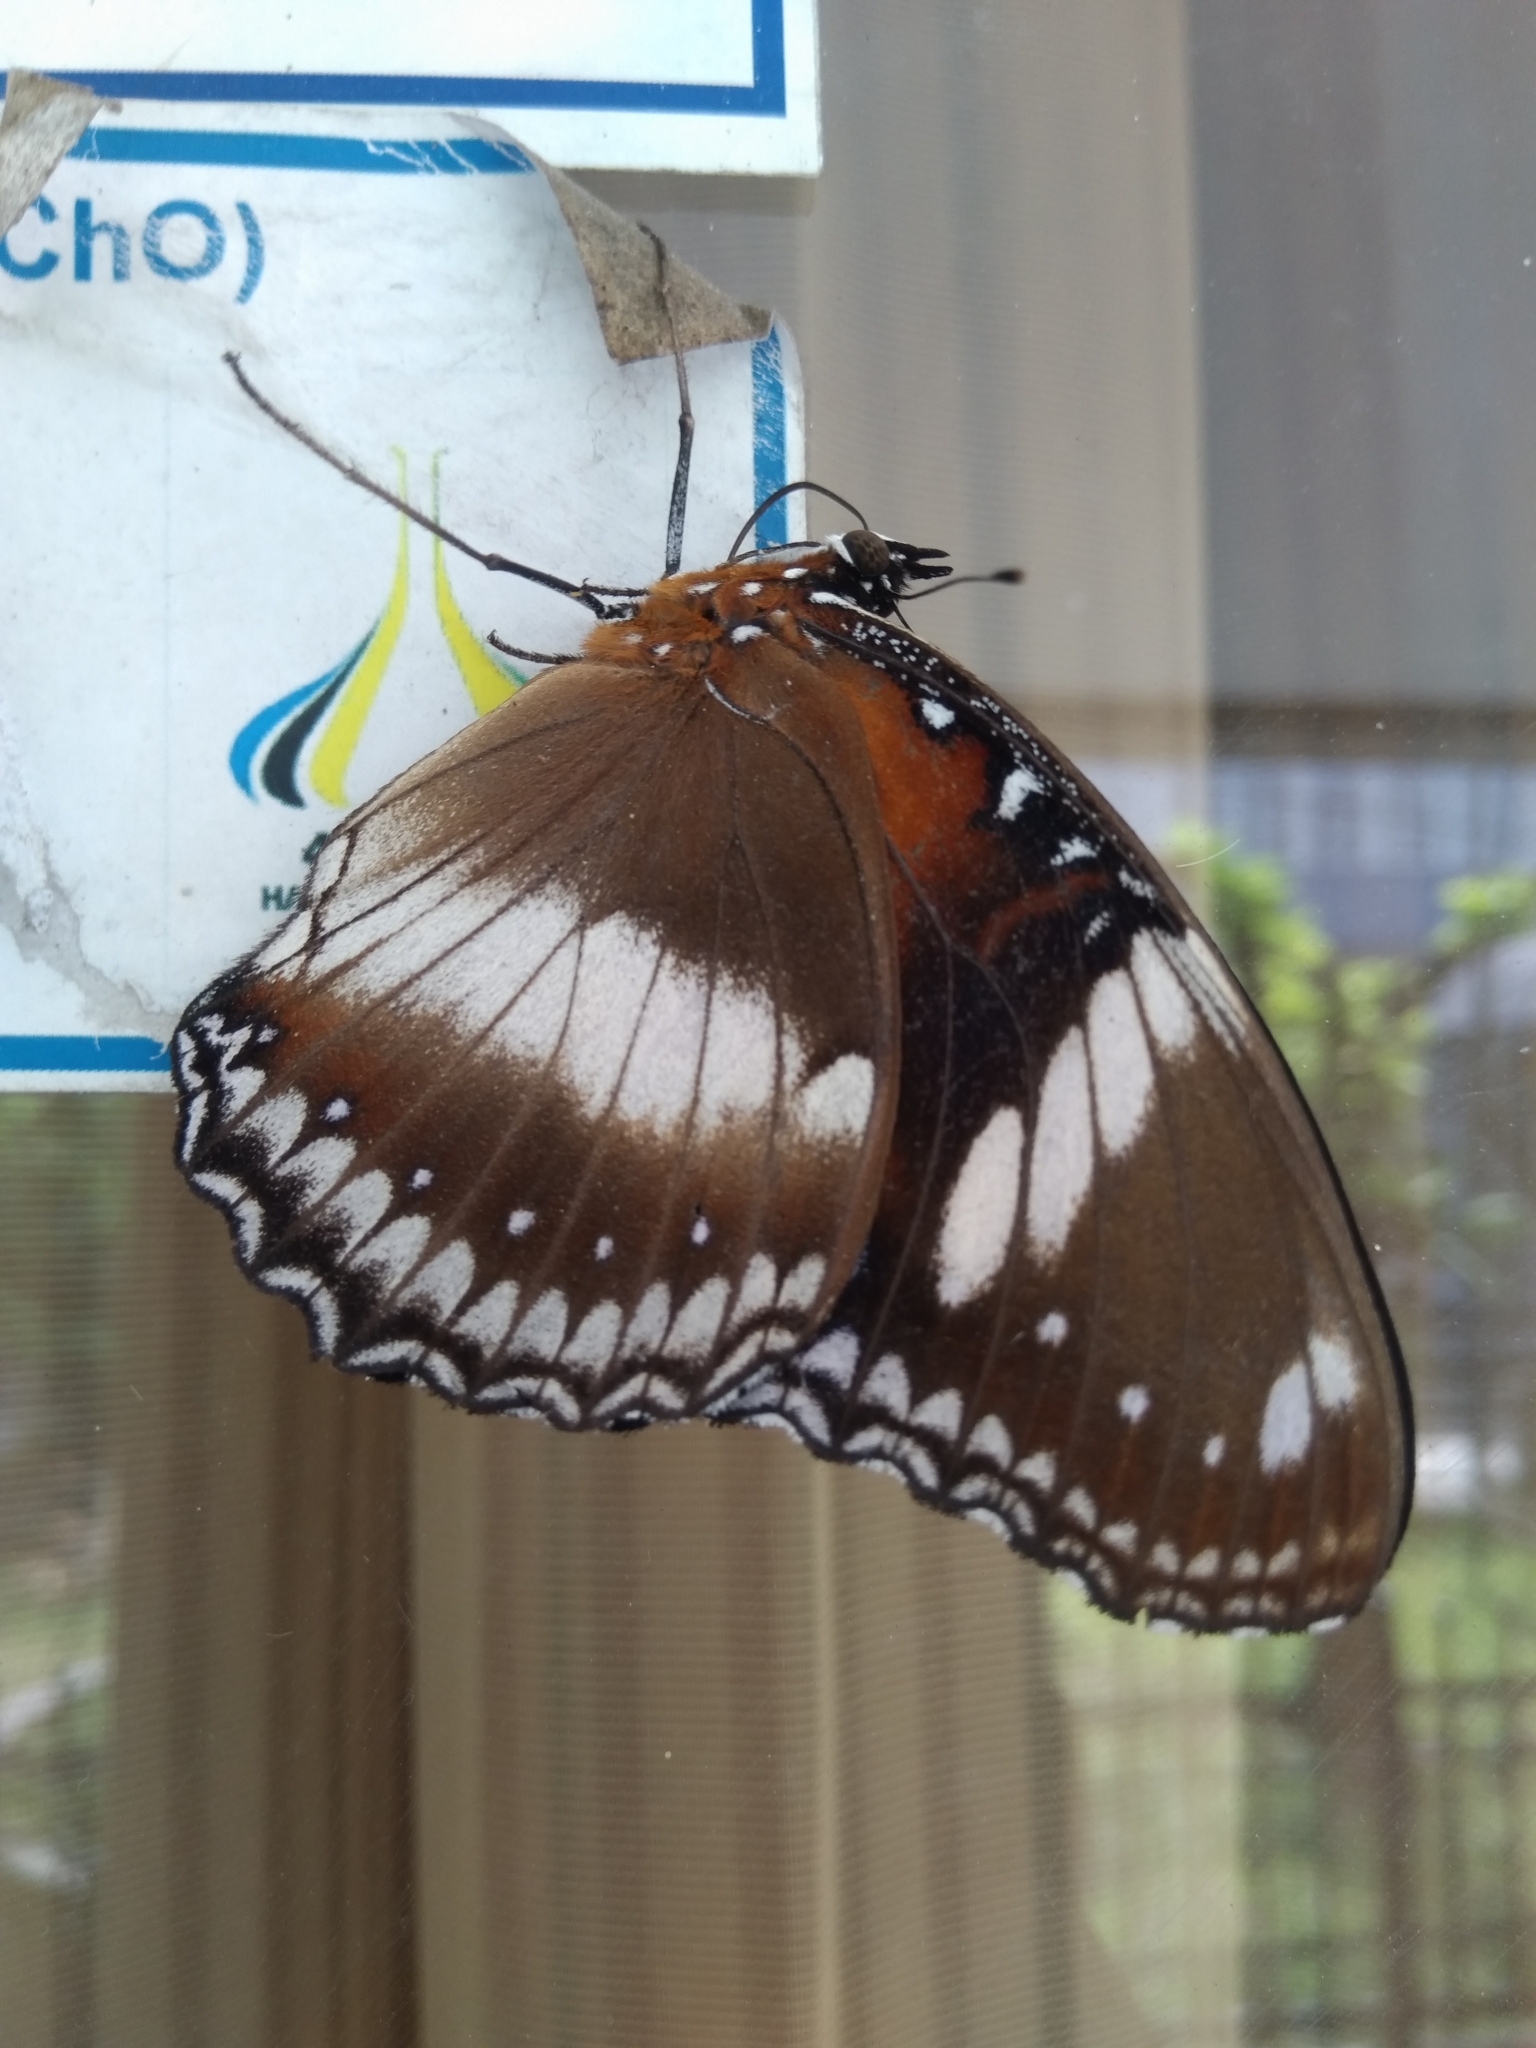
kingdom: Animalia
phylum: Arthropoda
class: Insecta
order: Lepidoptera
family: Nymphalidae
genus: Hypolimnas
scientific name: Hypolimnas bolina
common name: Great eggfly
